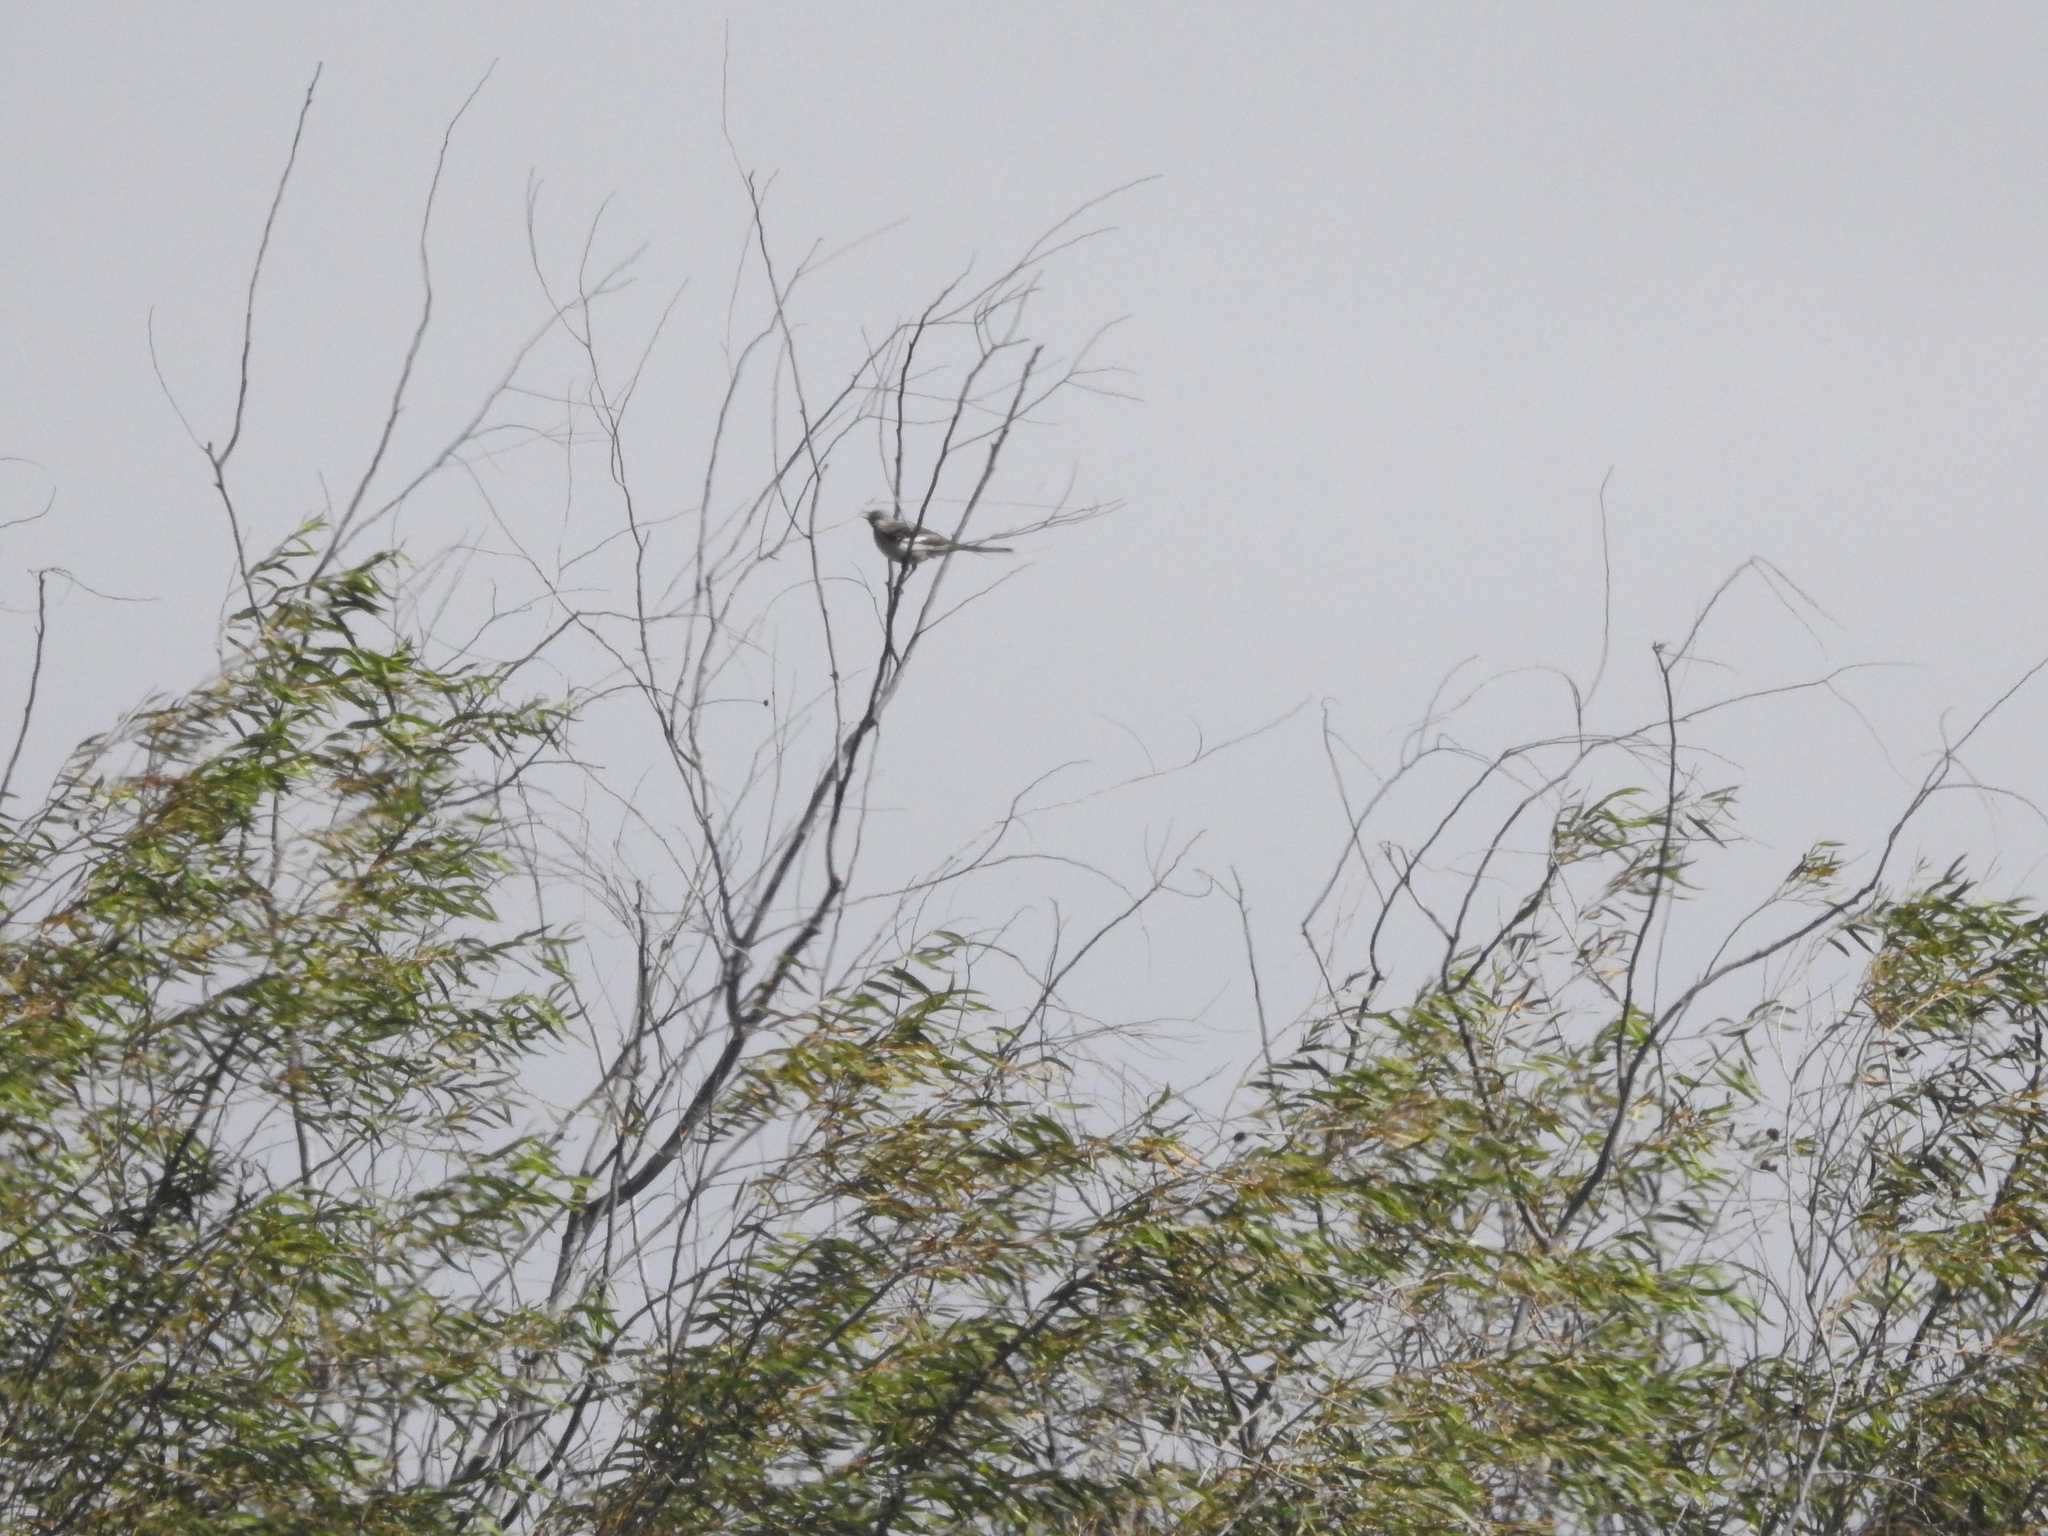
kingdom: Animalia
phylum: Chordata
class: Aves
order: Passeriformes
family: Mimidae
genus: Mimus
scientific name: Mimus polyglottos
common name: Northern mockingbird
